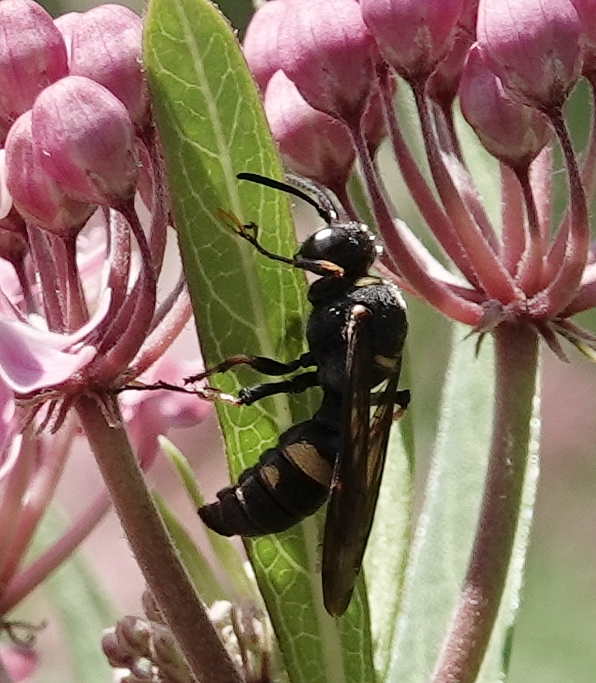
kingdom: Animalia
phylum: Arthropoda
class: Insecta
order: Hymenoptera
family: Crabronidae
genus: Cerceris
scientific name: Cerceris fumipennis
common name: Smokey-winged beetle bandit wasp
